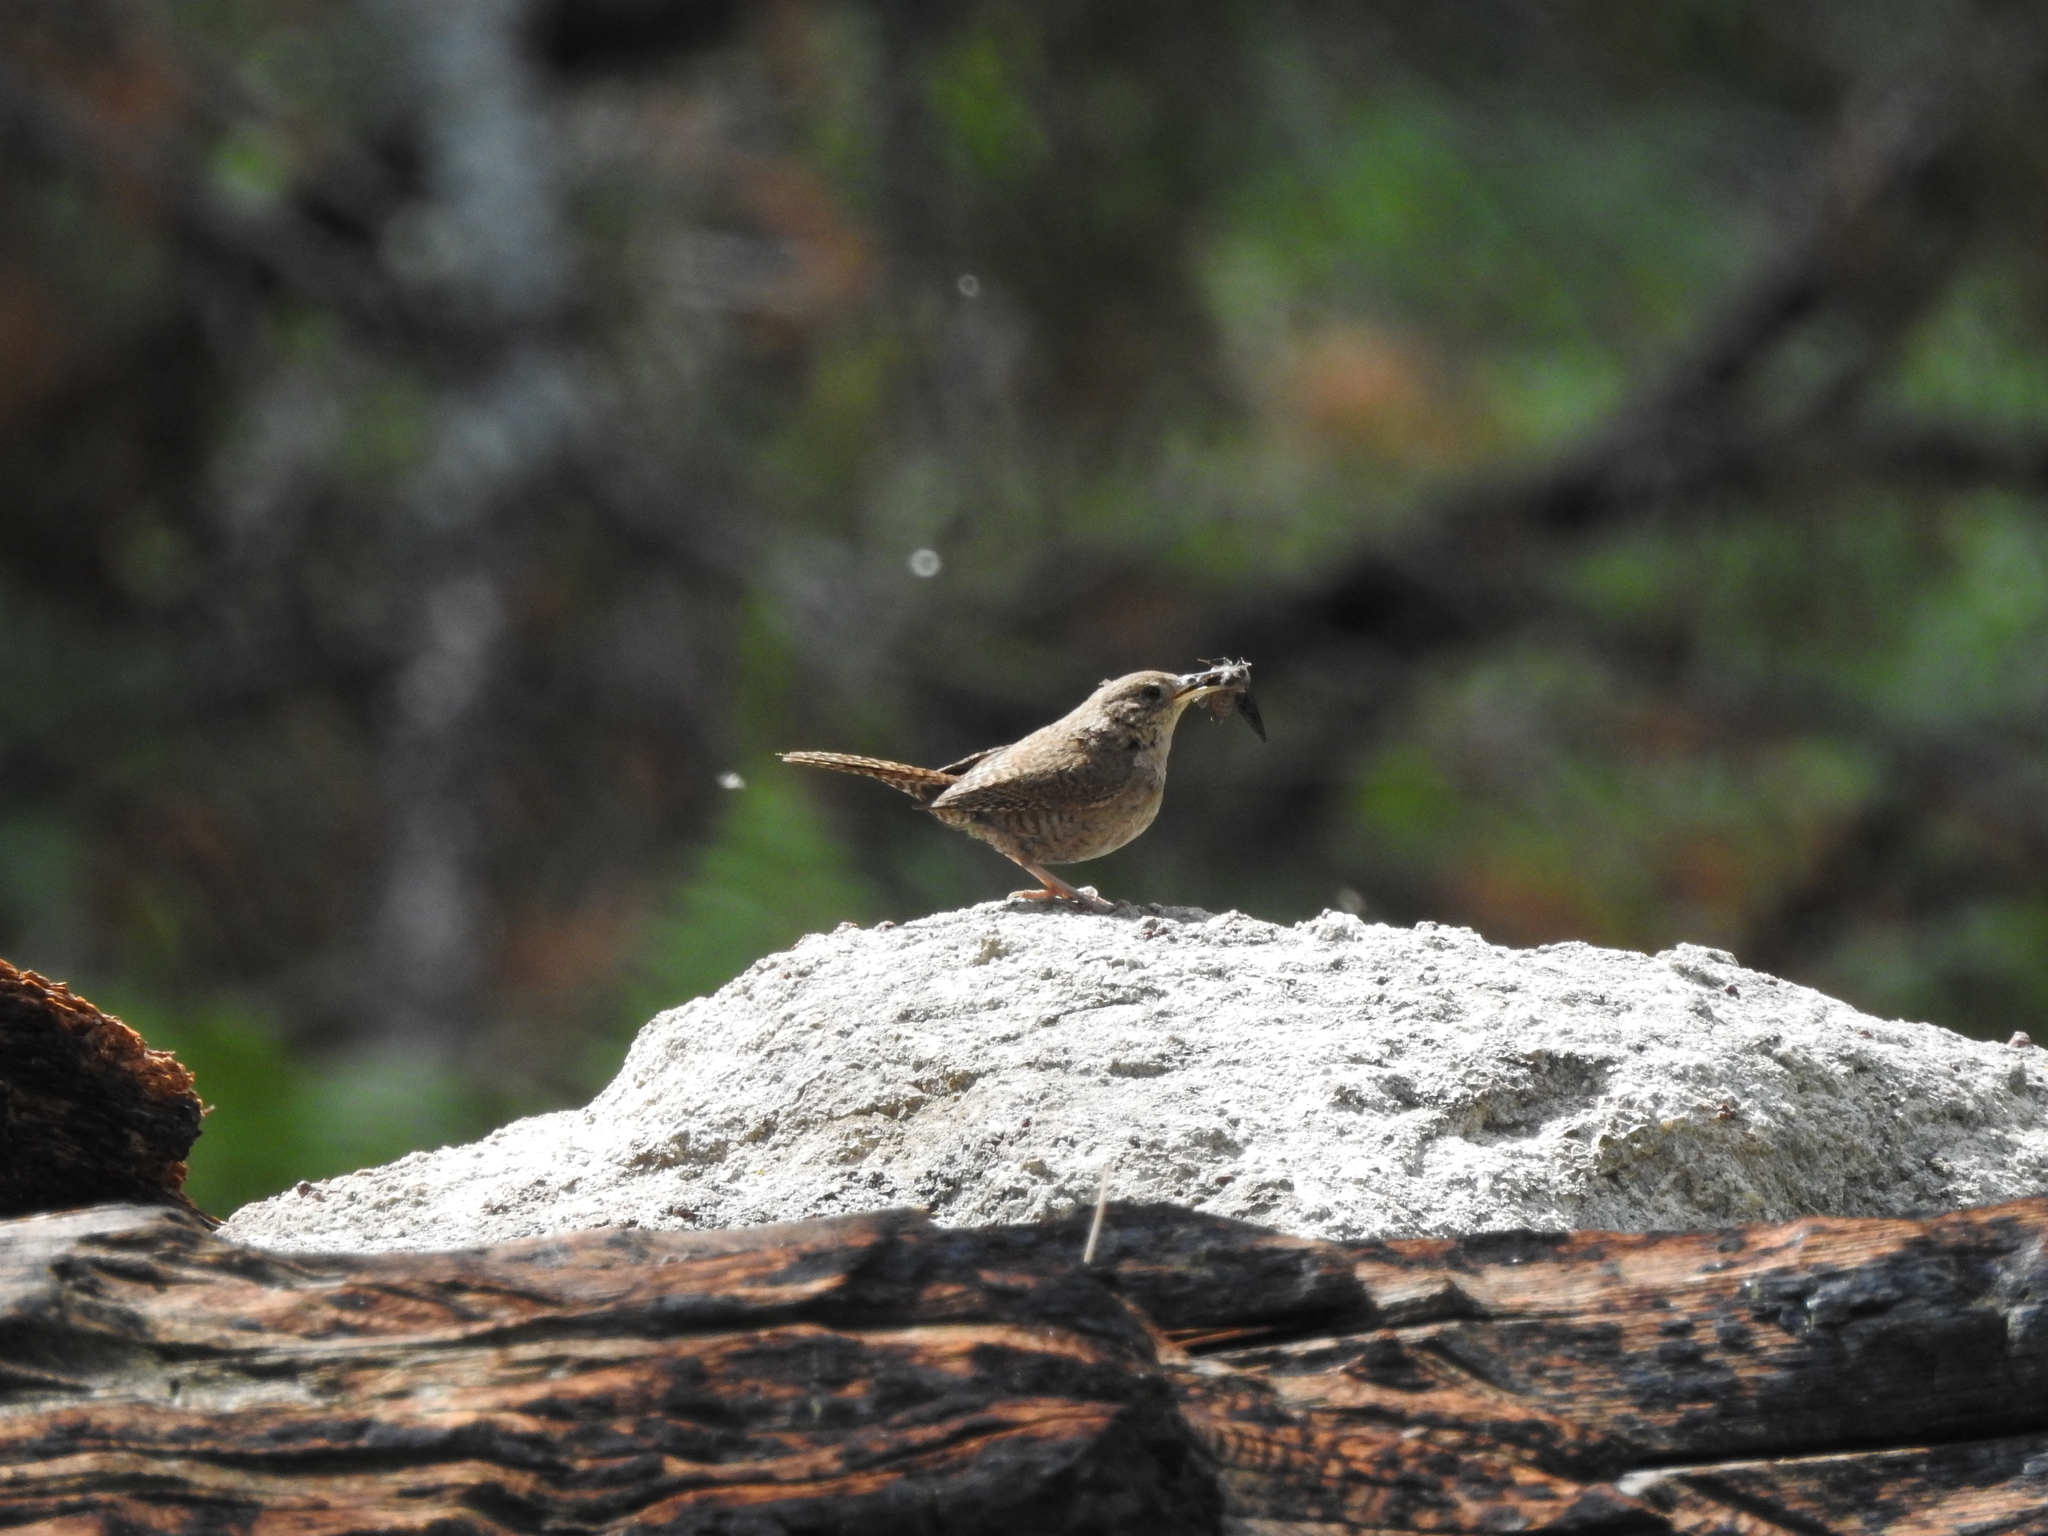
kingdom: Animalia
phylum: Chordata
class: Aves
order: Passeriformes
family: Troglodytidae
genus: Troglodytes
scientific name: Troglodytes aedon
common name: House wren
